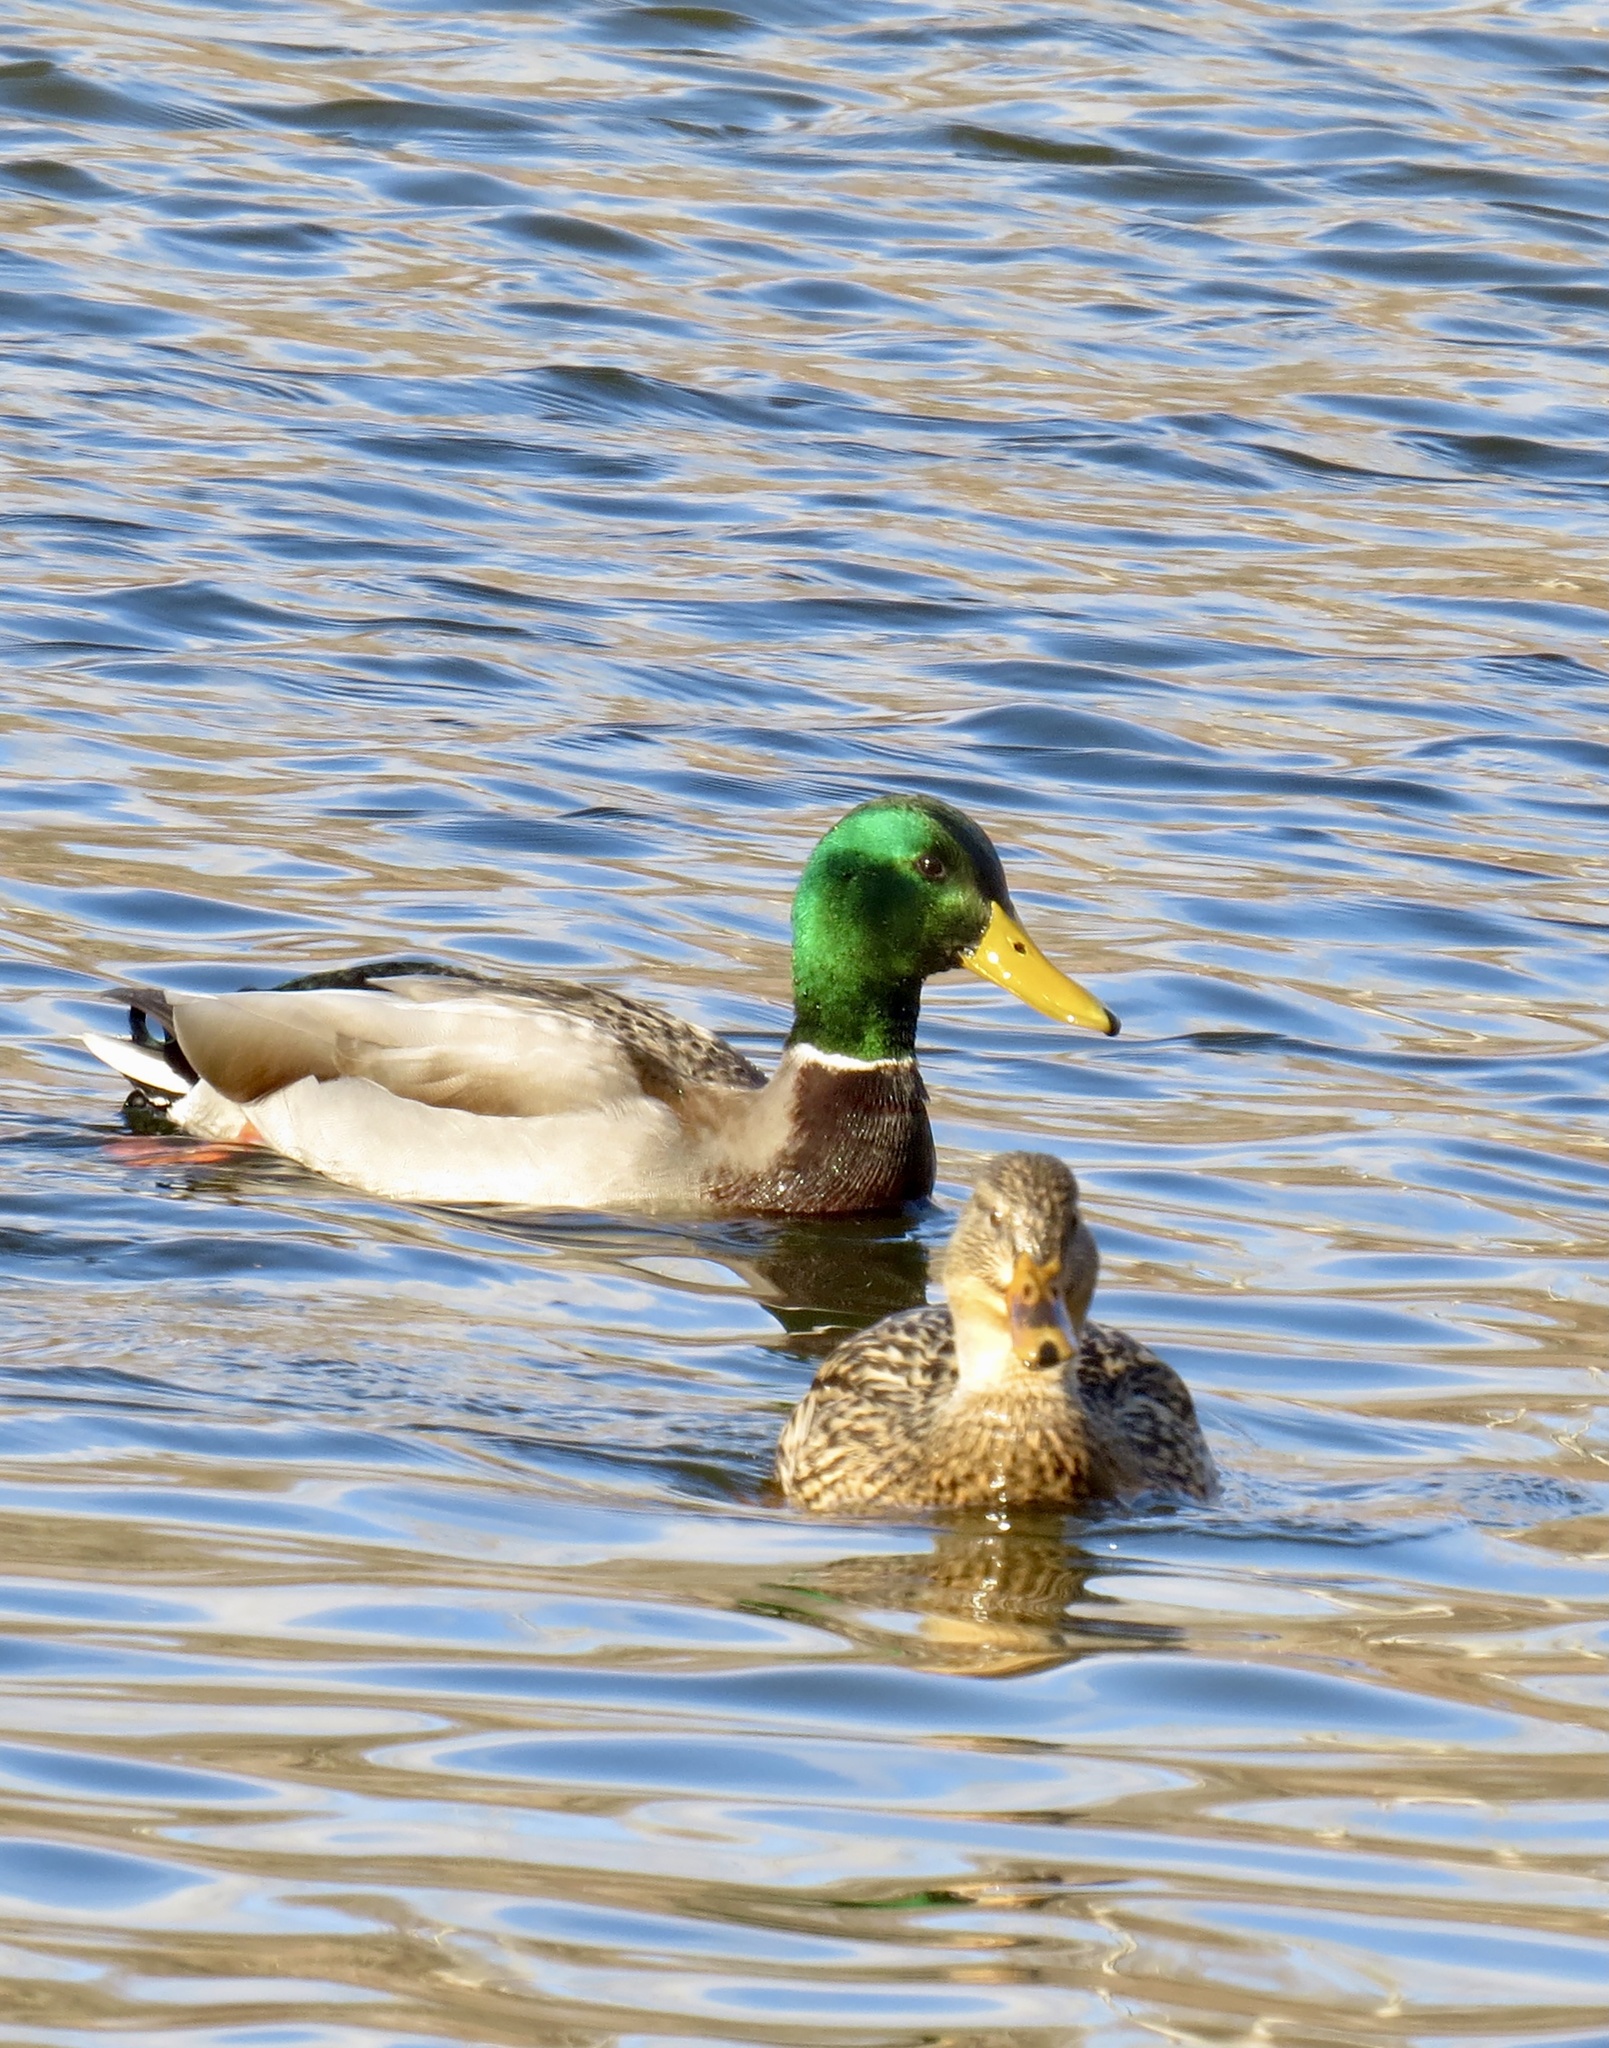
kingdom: Animalia
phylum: Chordata
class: Aves
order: Anseriformes
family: Anatidae
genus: Anas
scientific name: Anas platyrhynchos
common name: Mallard
